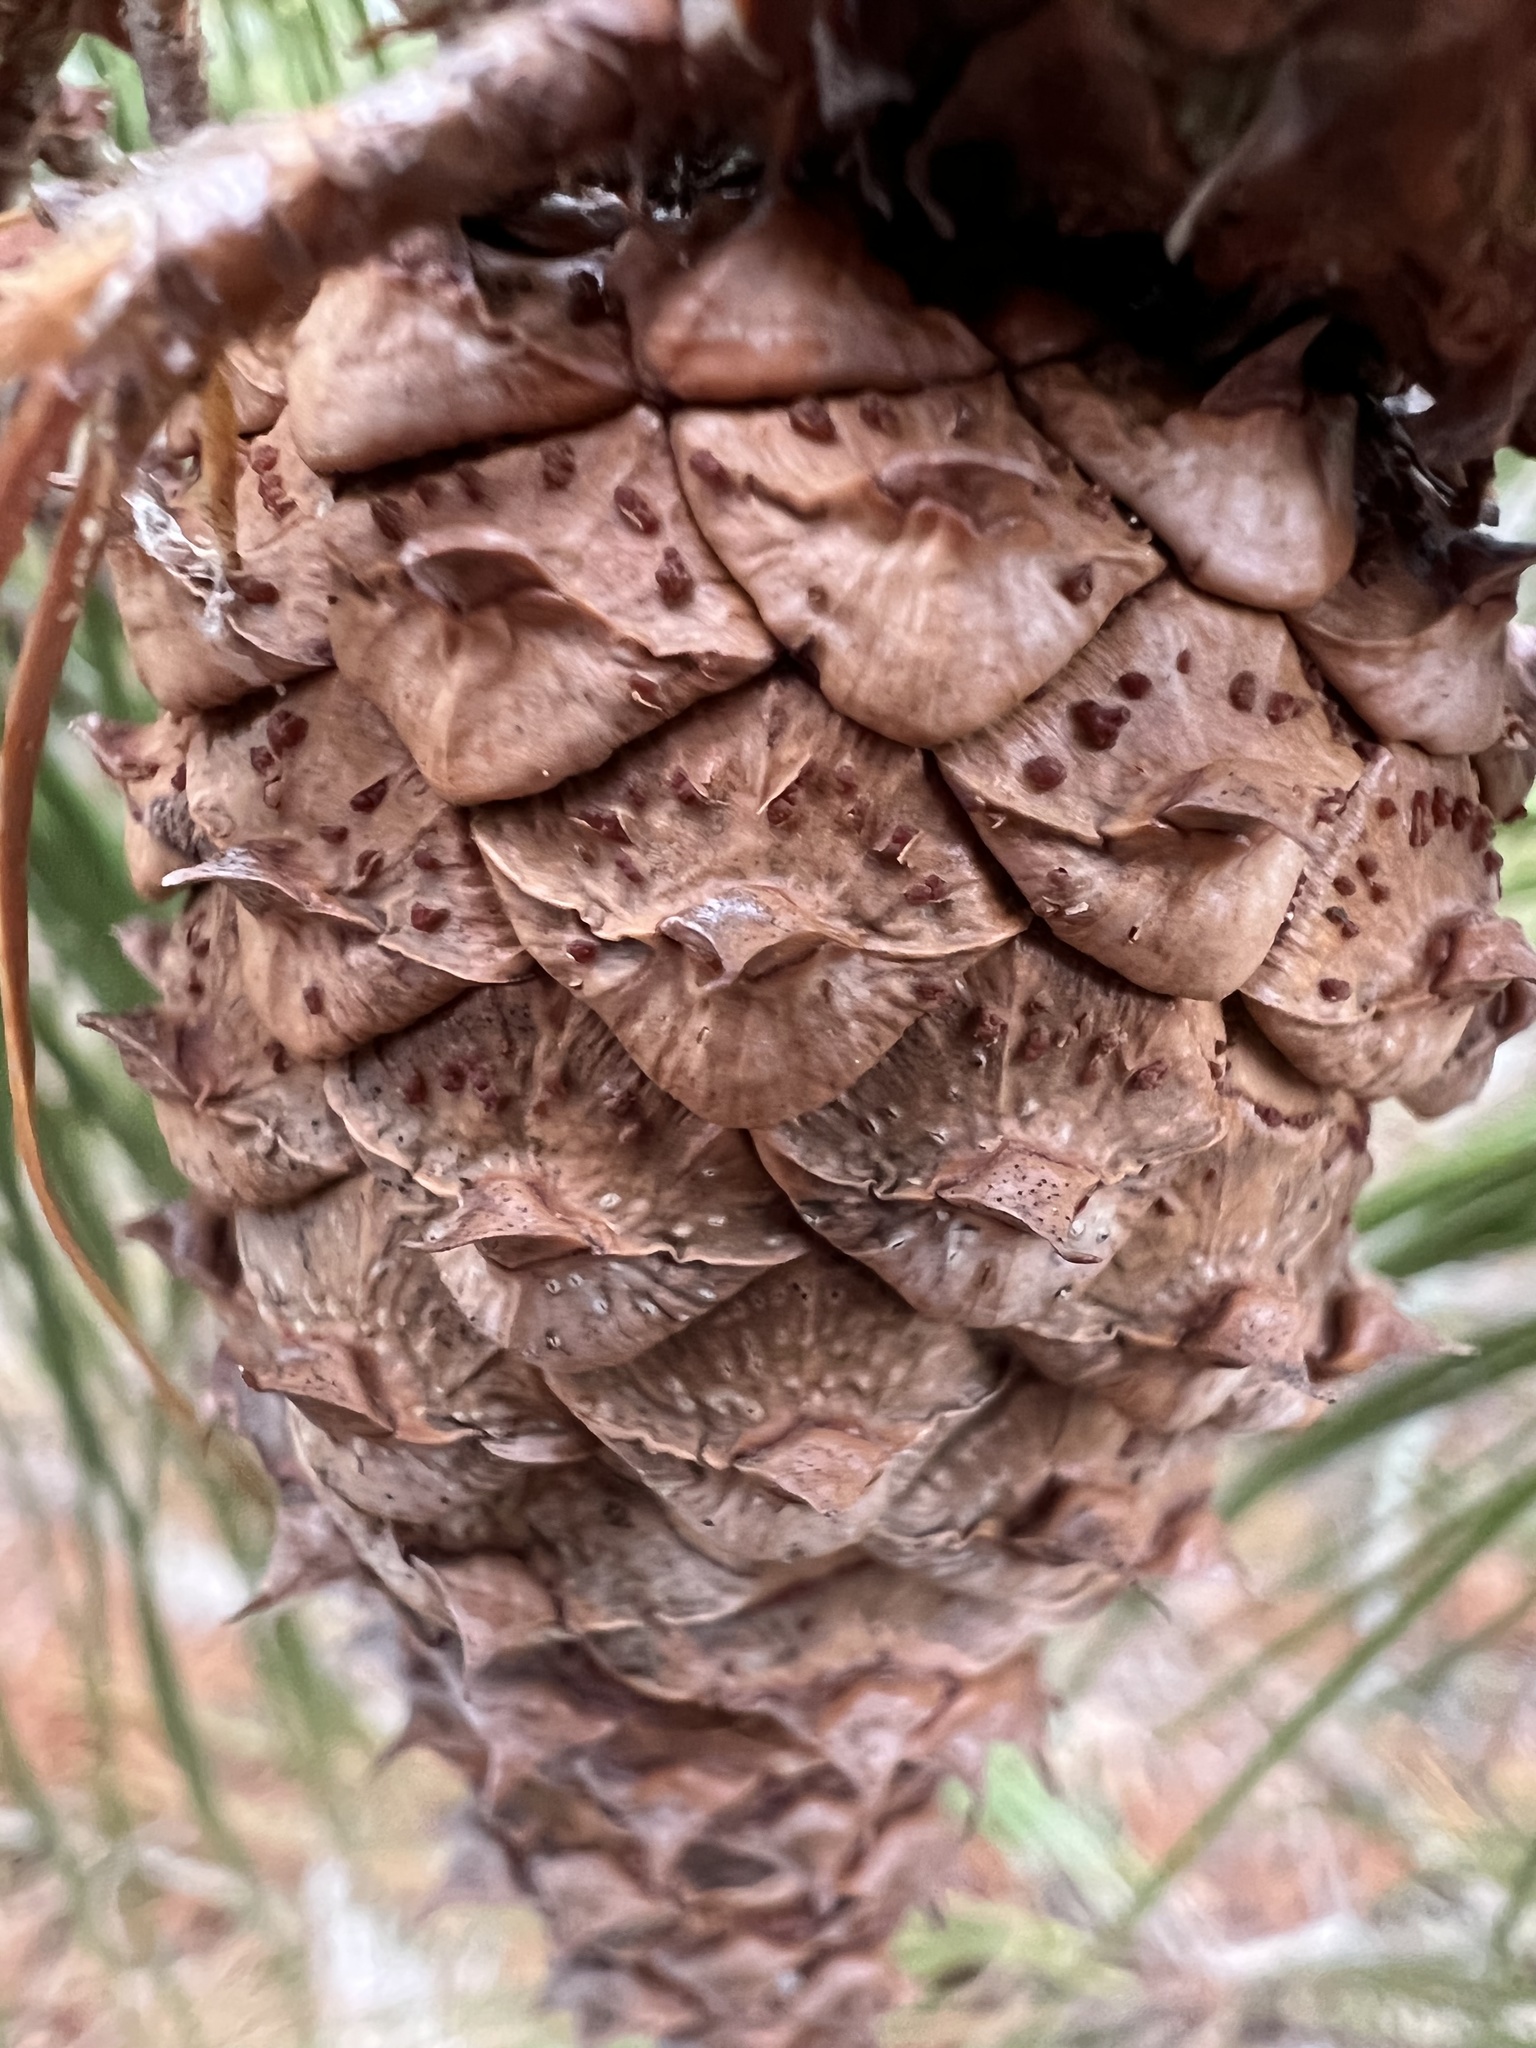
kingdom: Plantae
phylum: Tracheophyta
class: Pinopsida
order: Pinales
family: Pinaceae
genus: Pinus
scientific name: Pinus taeda
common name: Loblolly pine
